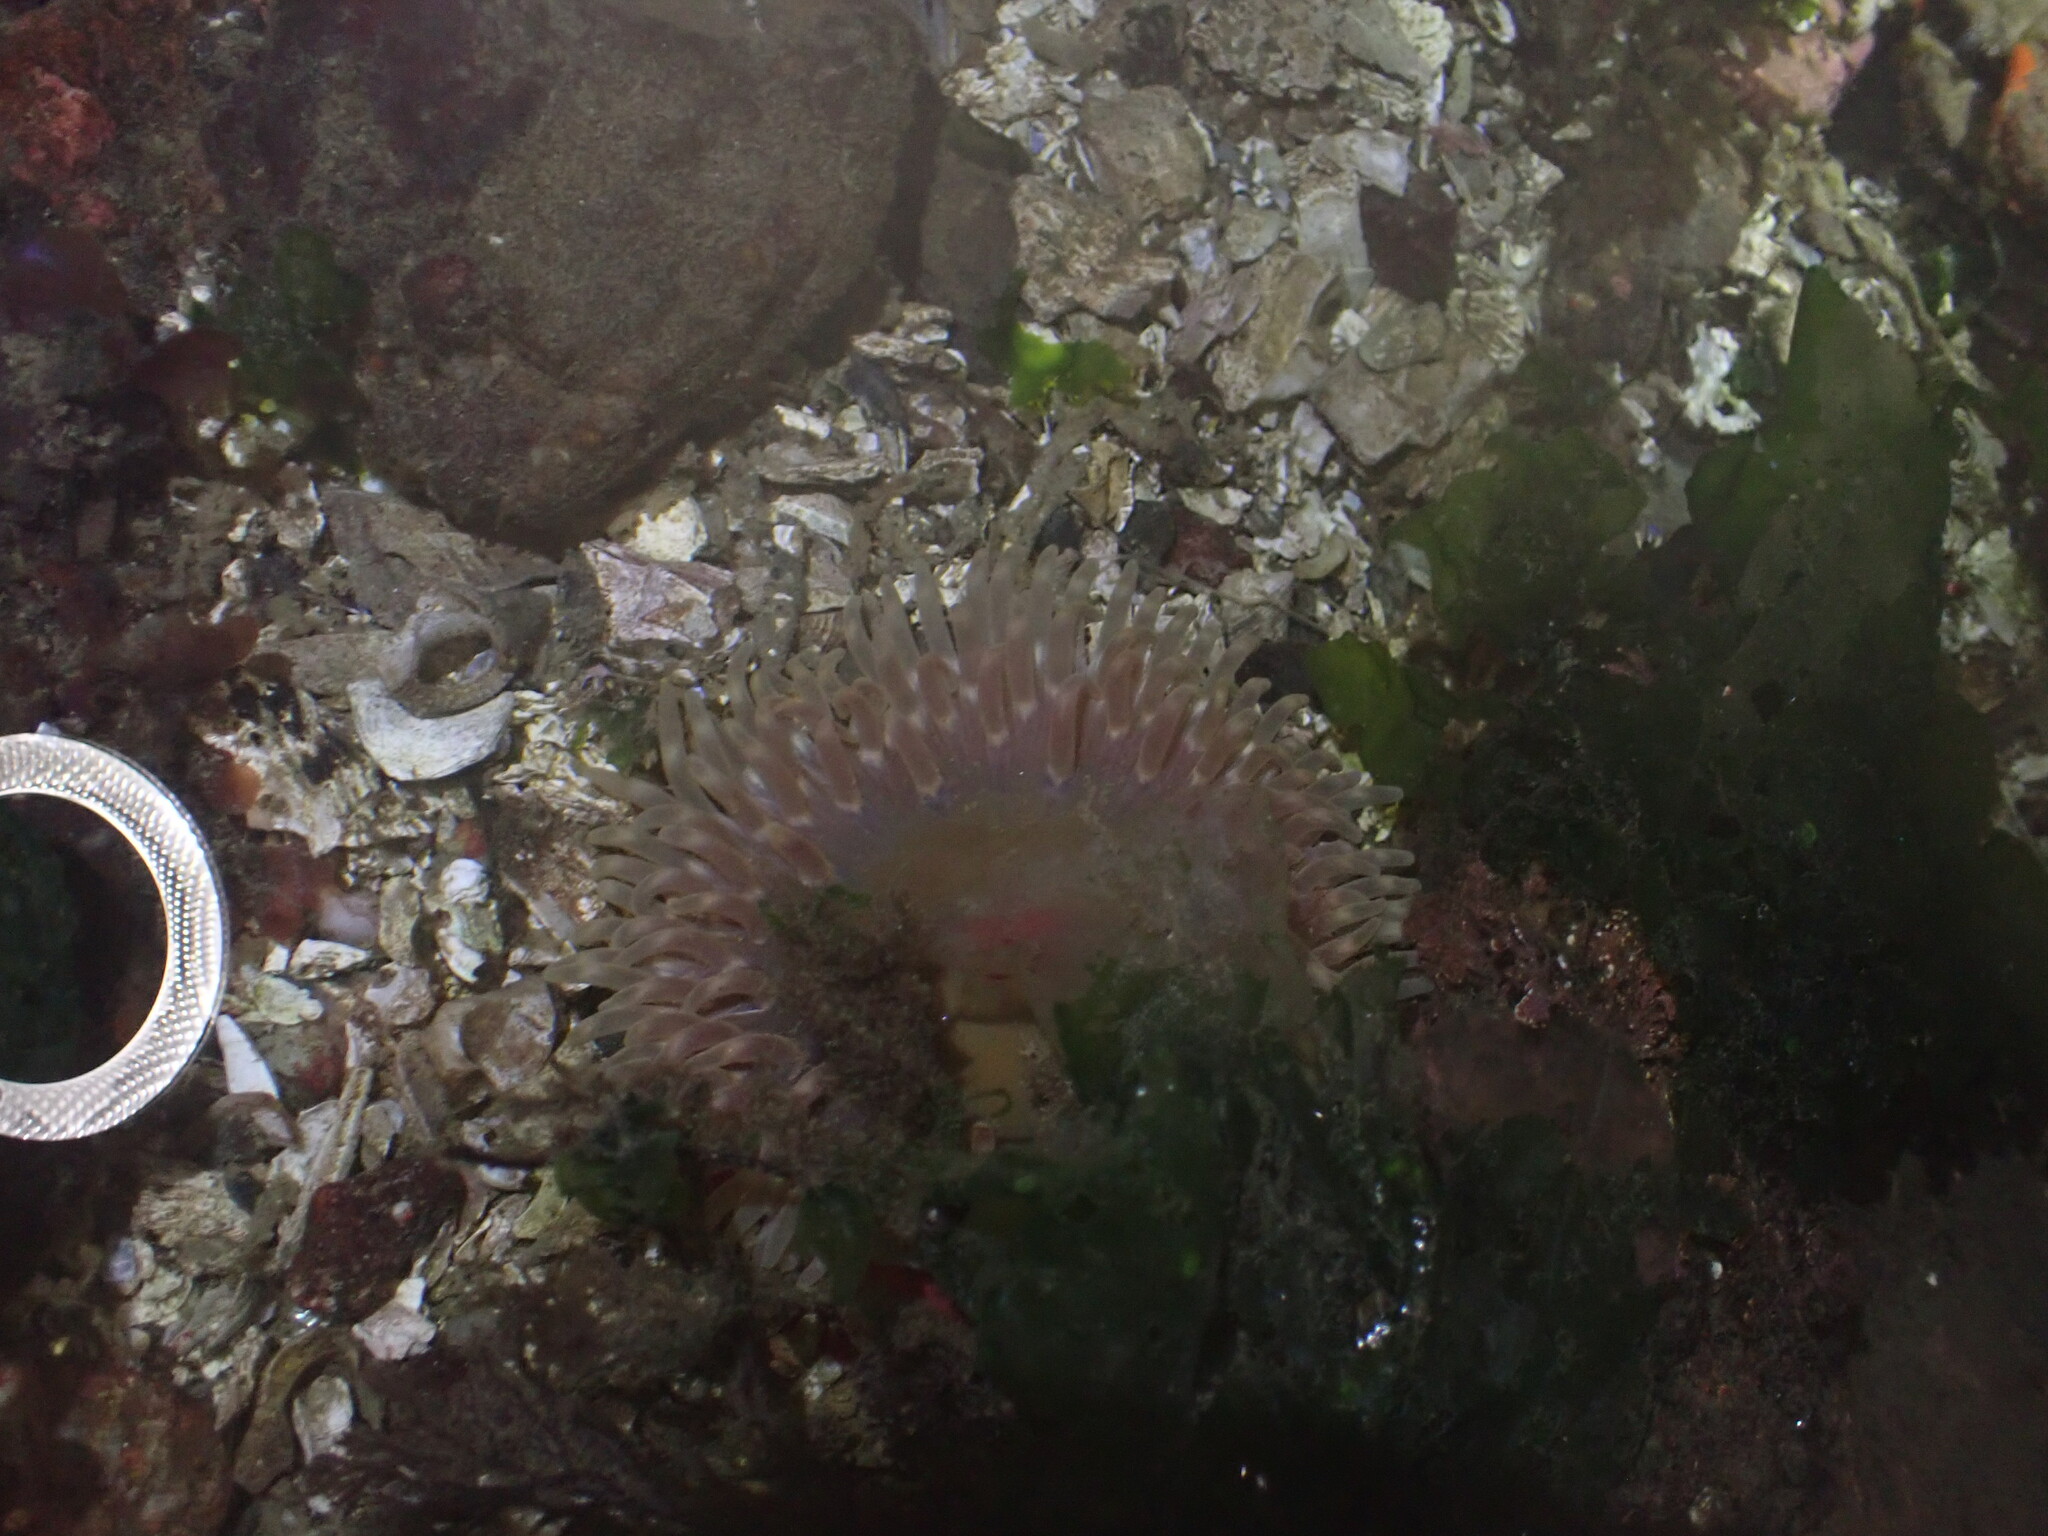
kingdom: Animalia
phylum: Cnidaria
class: Anthozoa
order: Actiniaria
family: Actiniidae
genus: Urticina
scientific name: Urticina clandestina
